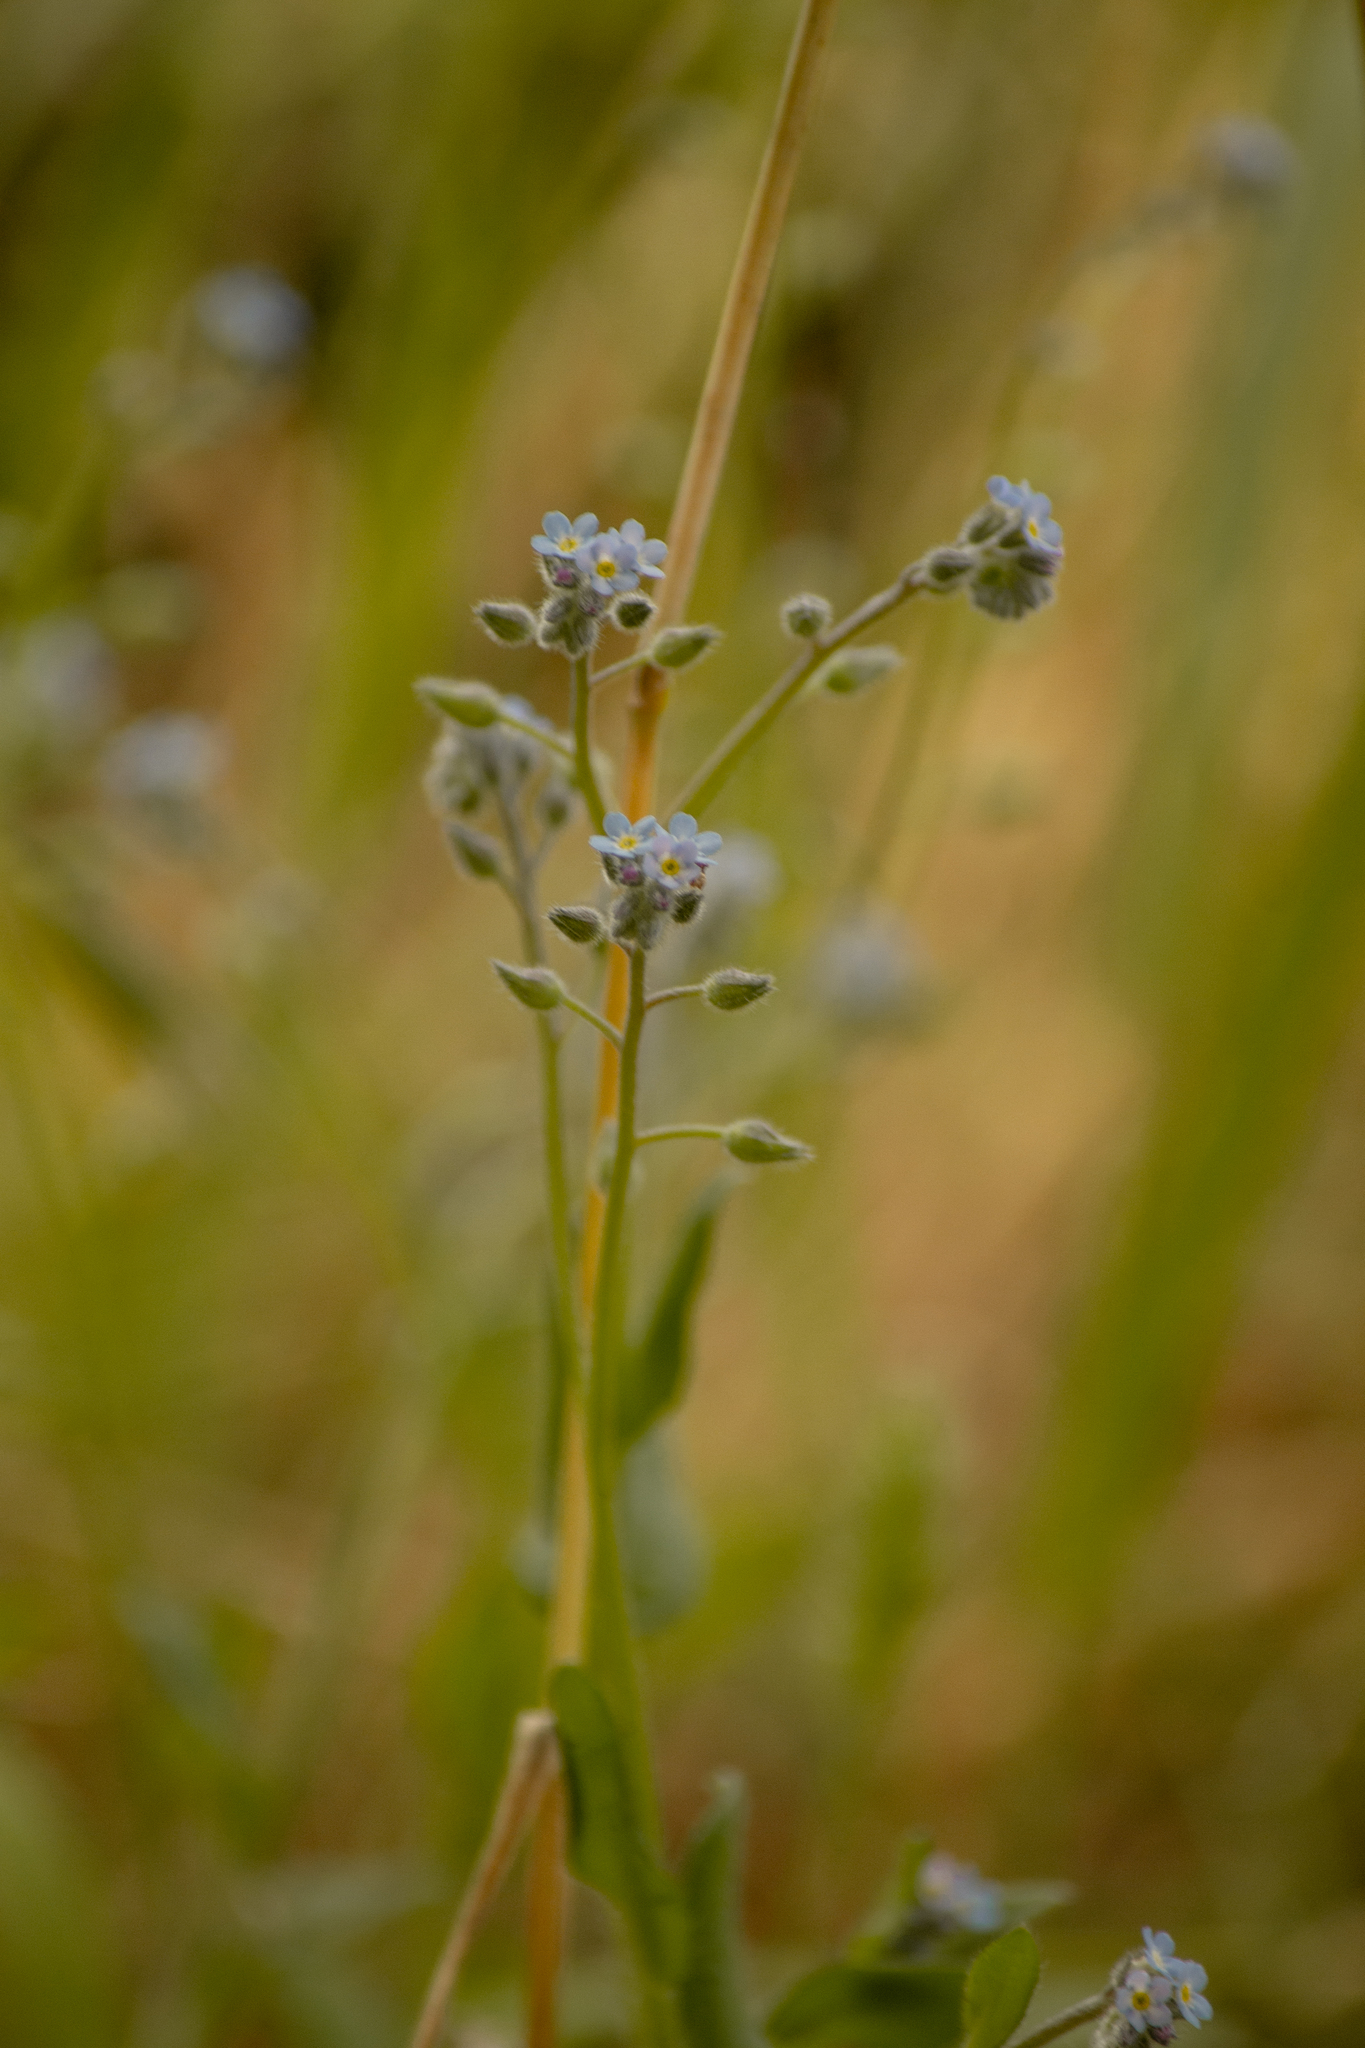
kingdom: Plantae
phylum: Tracheophyta
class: Magnoliopsida
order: Boraginales
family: Boraginaceae
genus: Myosotis
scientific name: Myosotis arvensis
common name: Field forget-me-not
